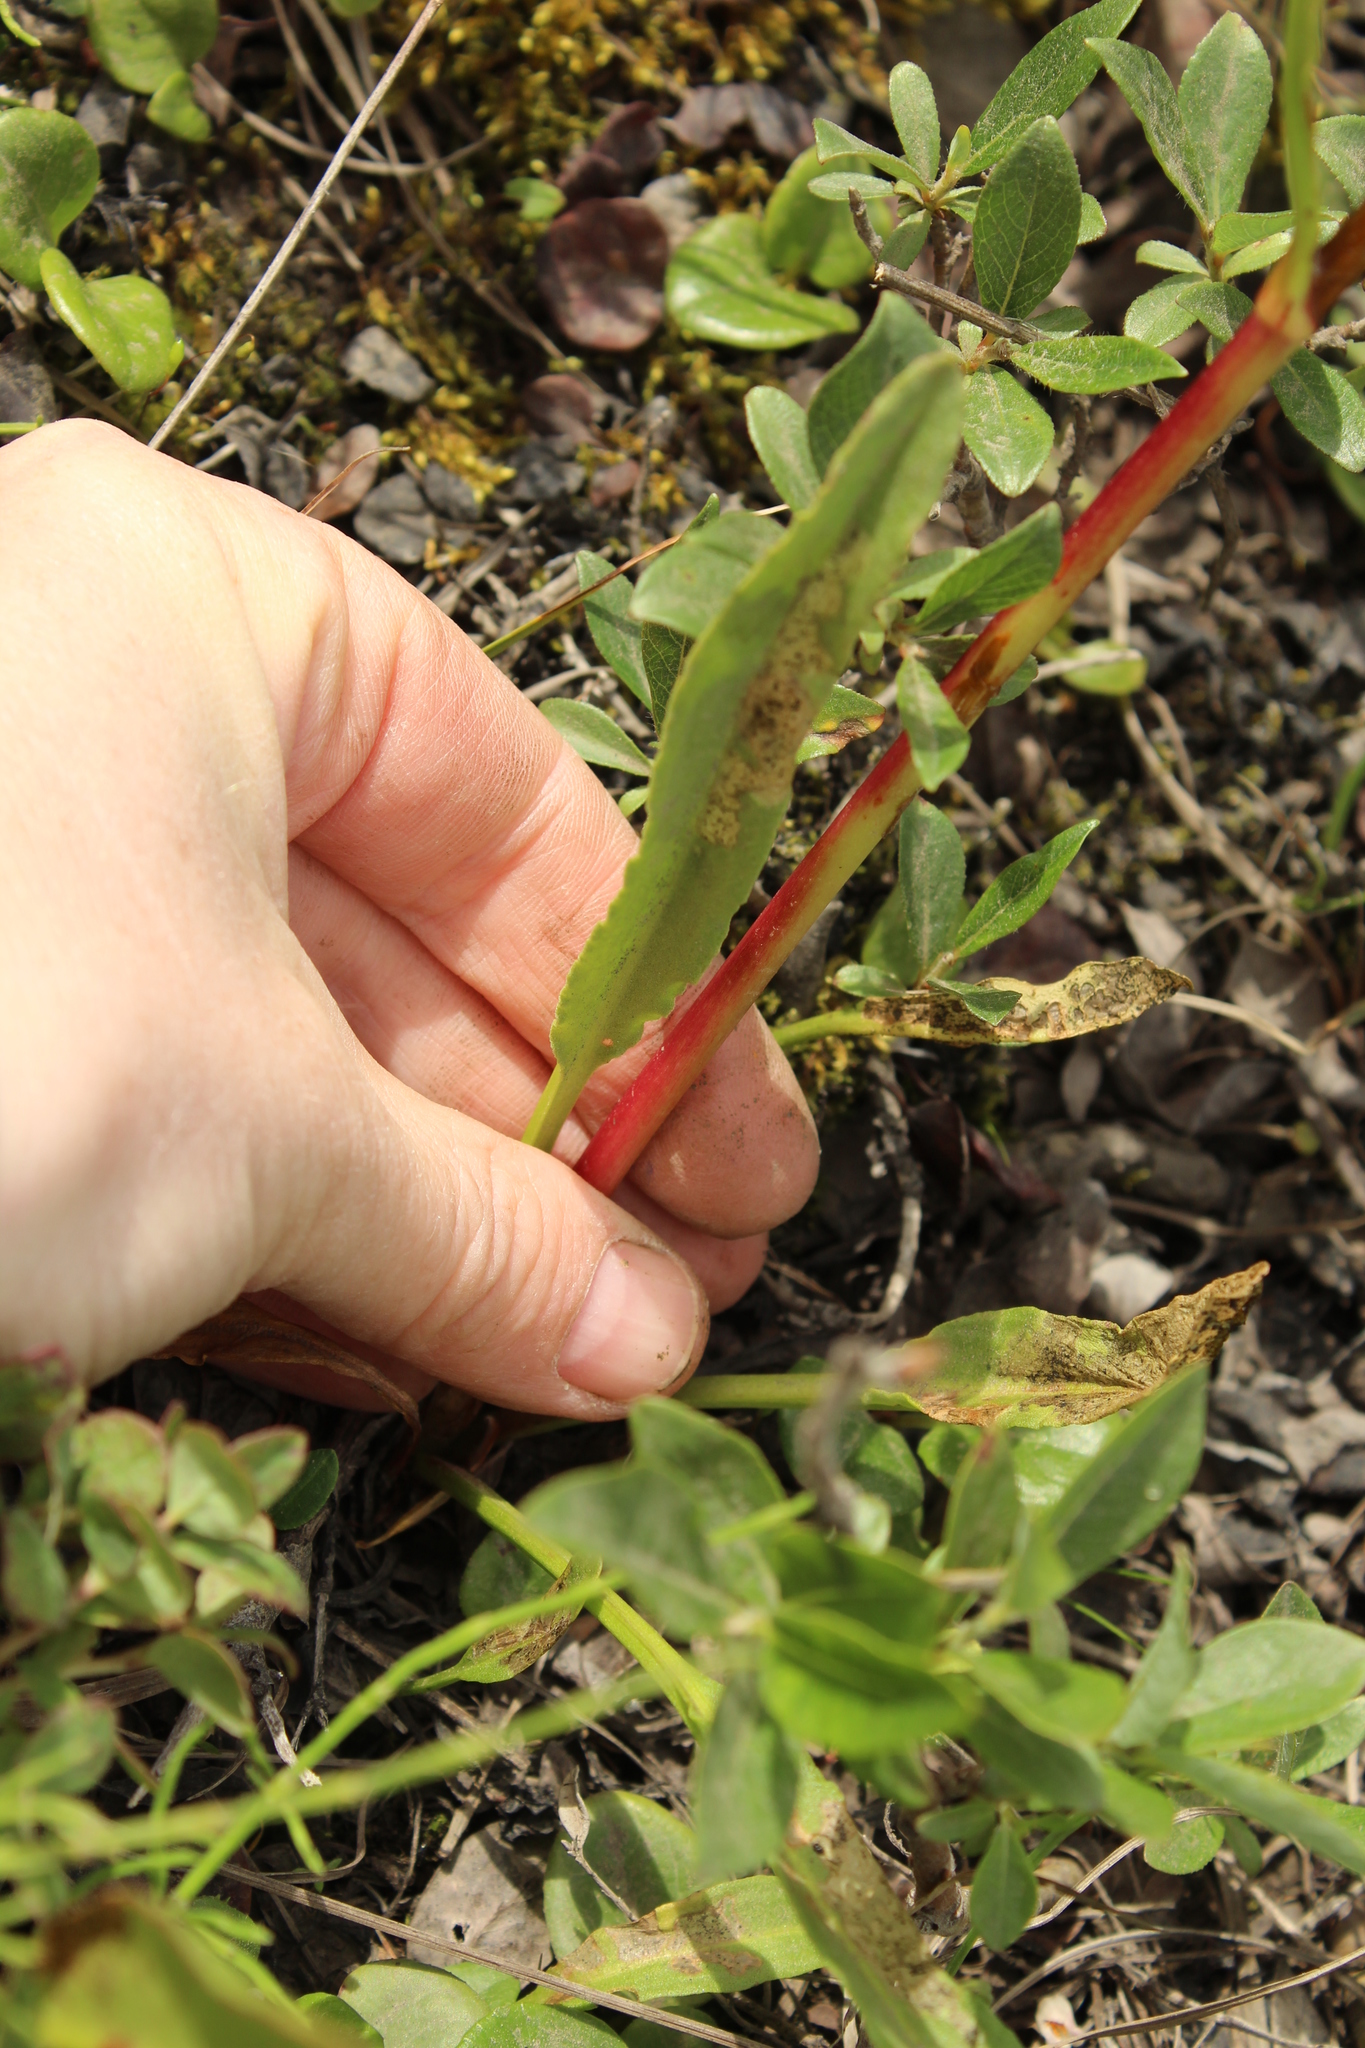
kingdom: Plantae
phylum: Tracheophyta
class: Magnoliopsida
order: Caryophyllales
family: Polygonaceae
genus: Rumex
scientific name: Rumex arcticus
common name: Arctic dock
